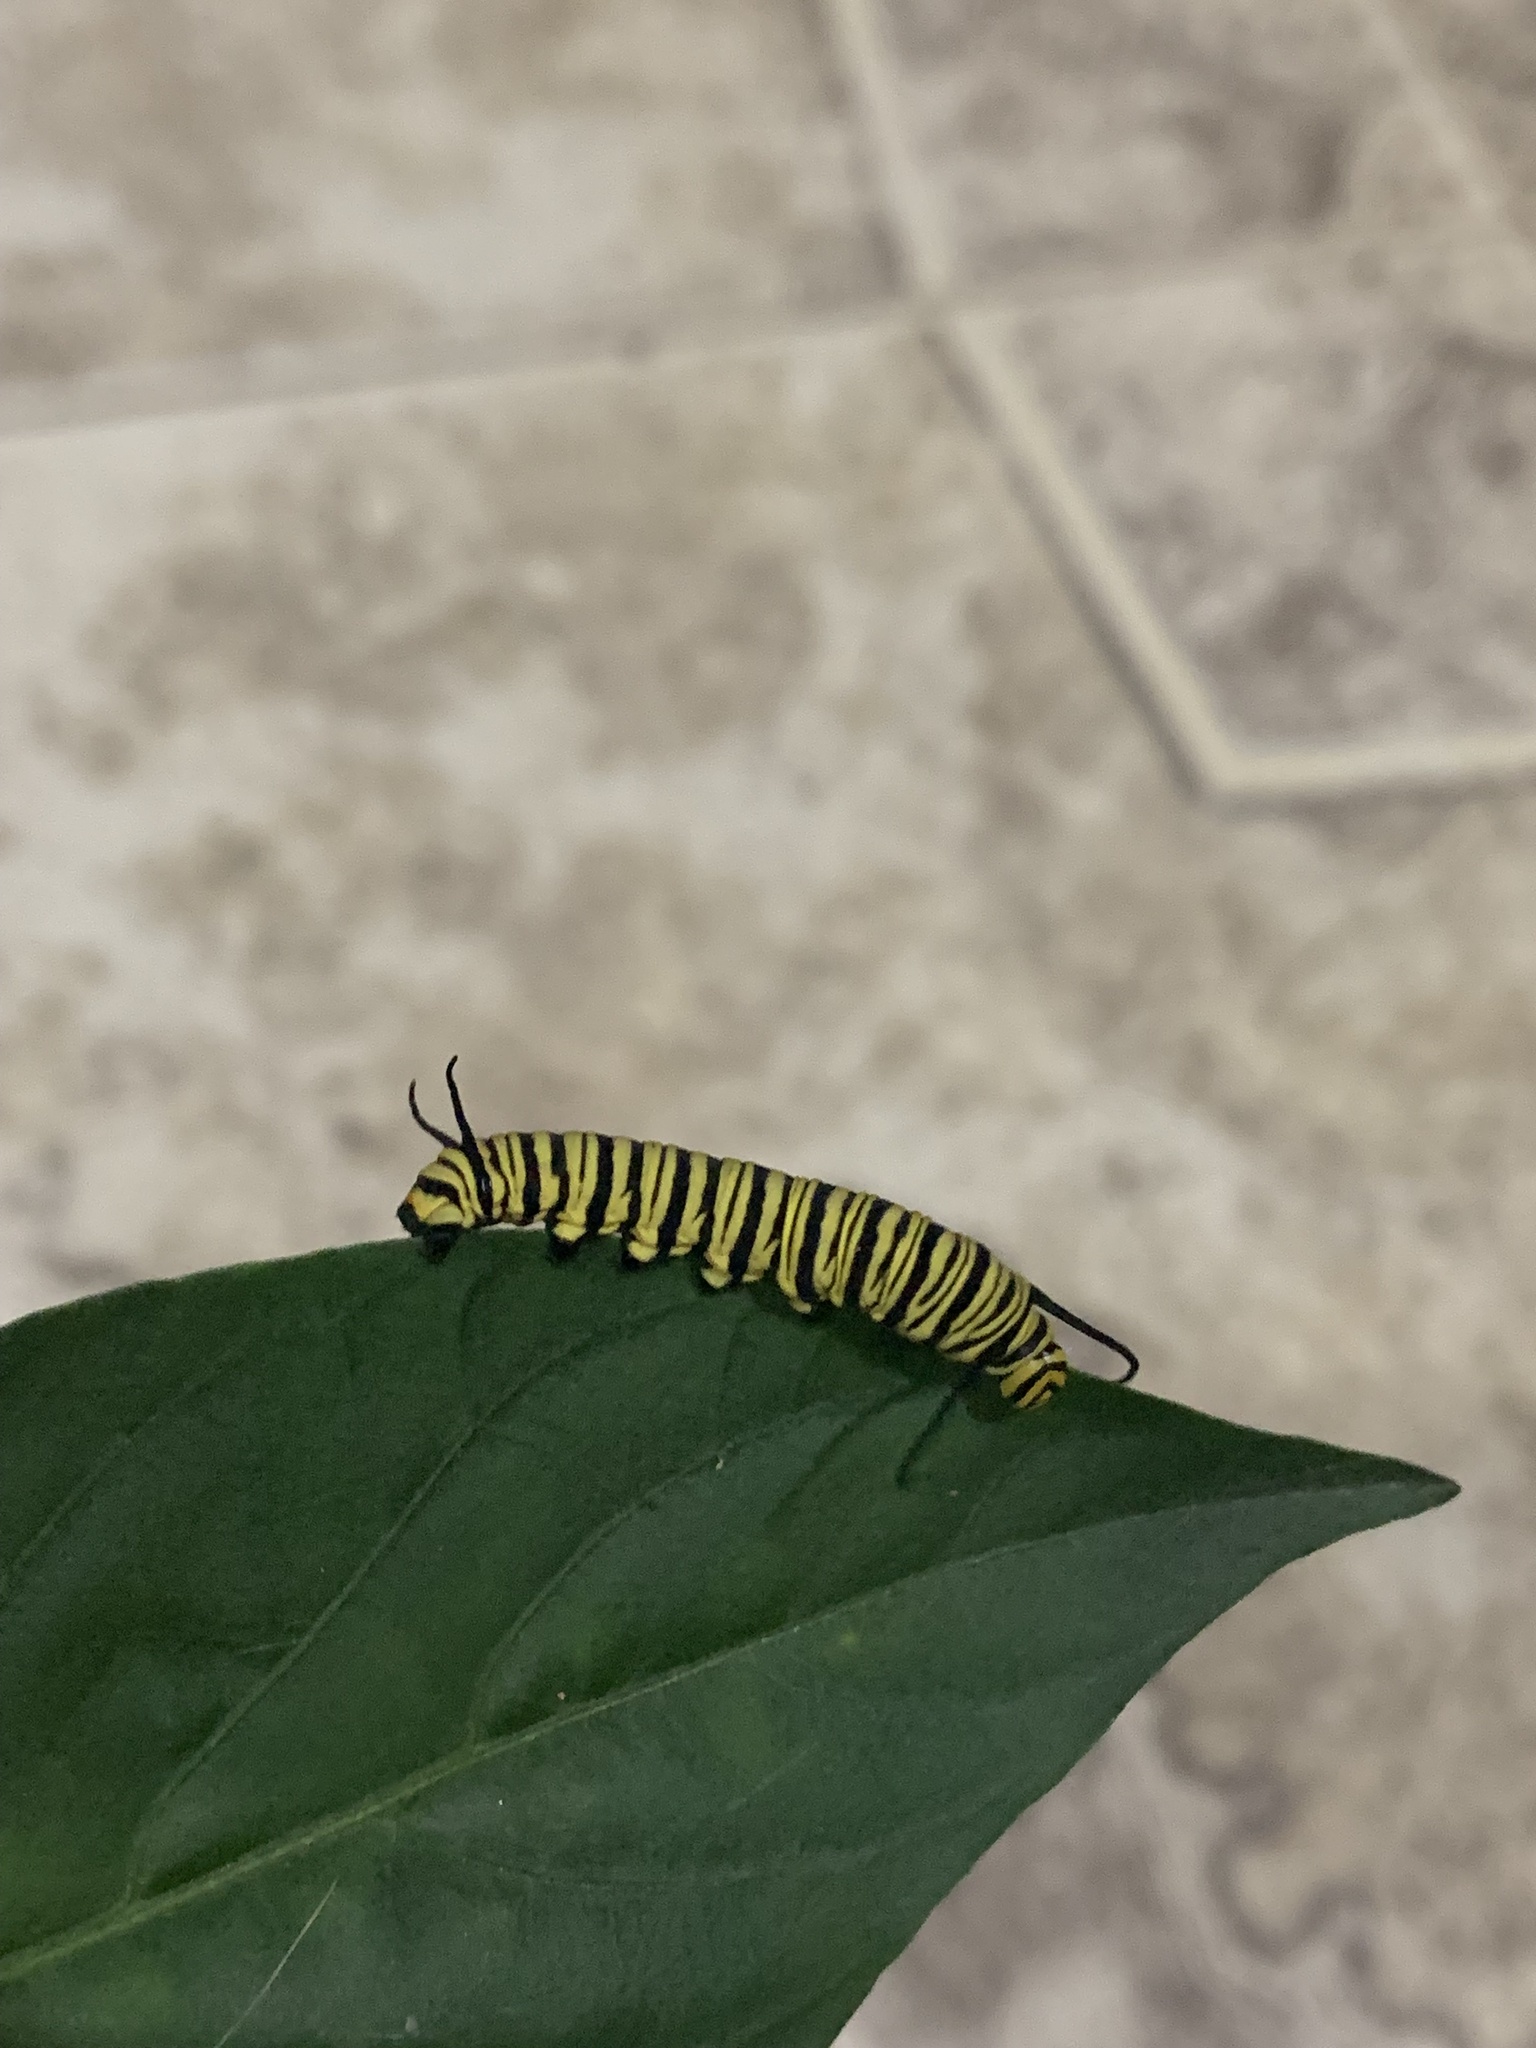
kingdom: Animalia
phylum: Arthropoda
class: Insecta
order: Lepidoptera
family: Nymphalidae
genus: Danaus
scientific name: Danaus erippus
